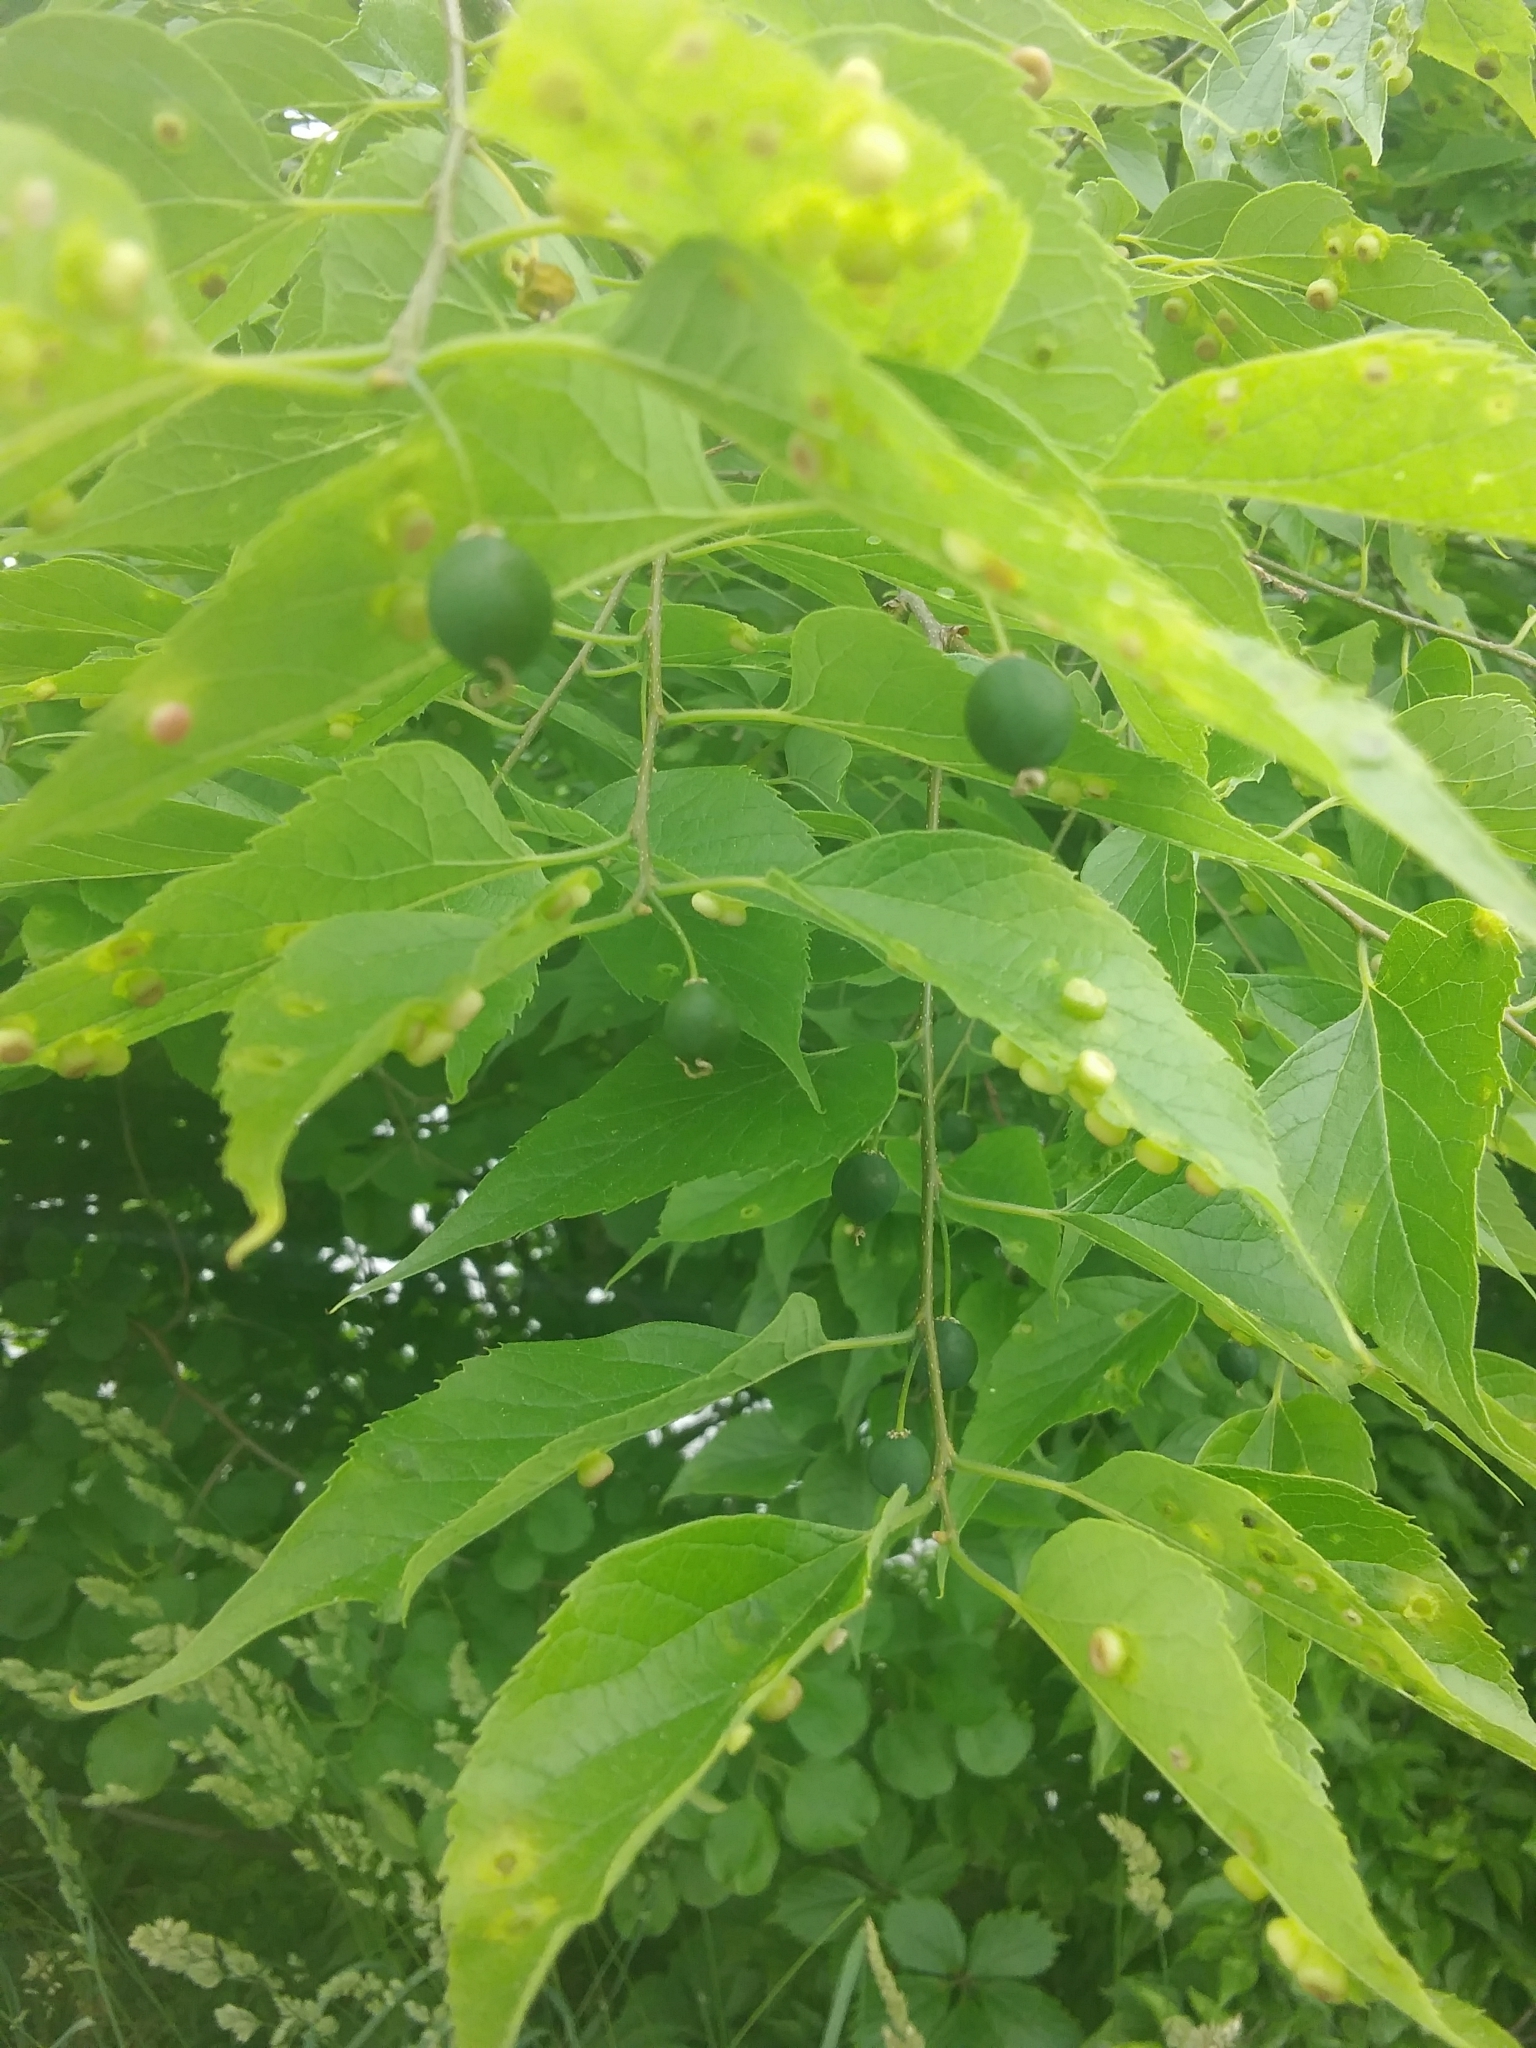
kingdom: Plantae
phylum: Tracheophyta
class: Magnoliopsida
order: Rosales
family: Cannabaceae
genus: Celtis
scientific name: Celtis occidentalis
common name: Common hackberry
